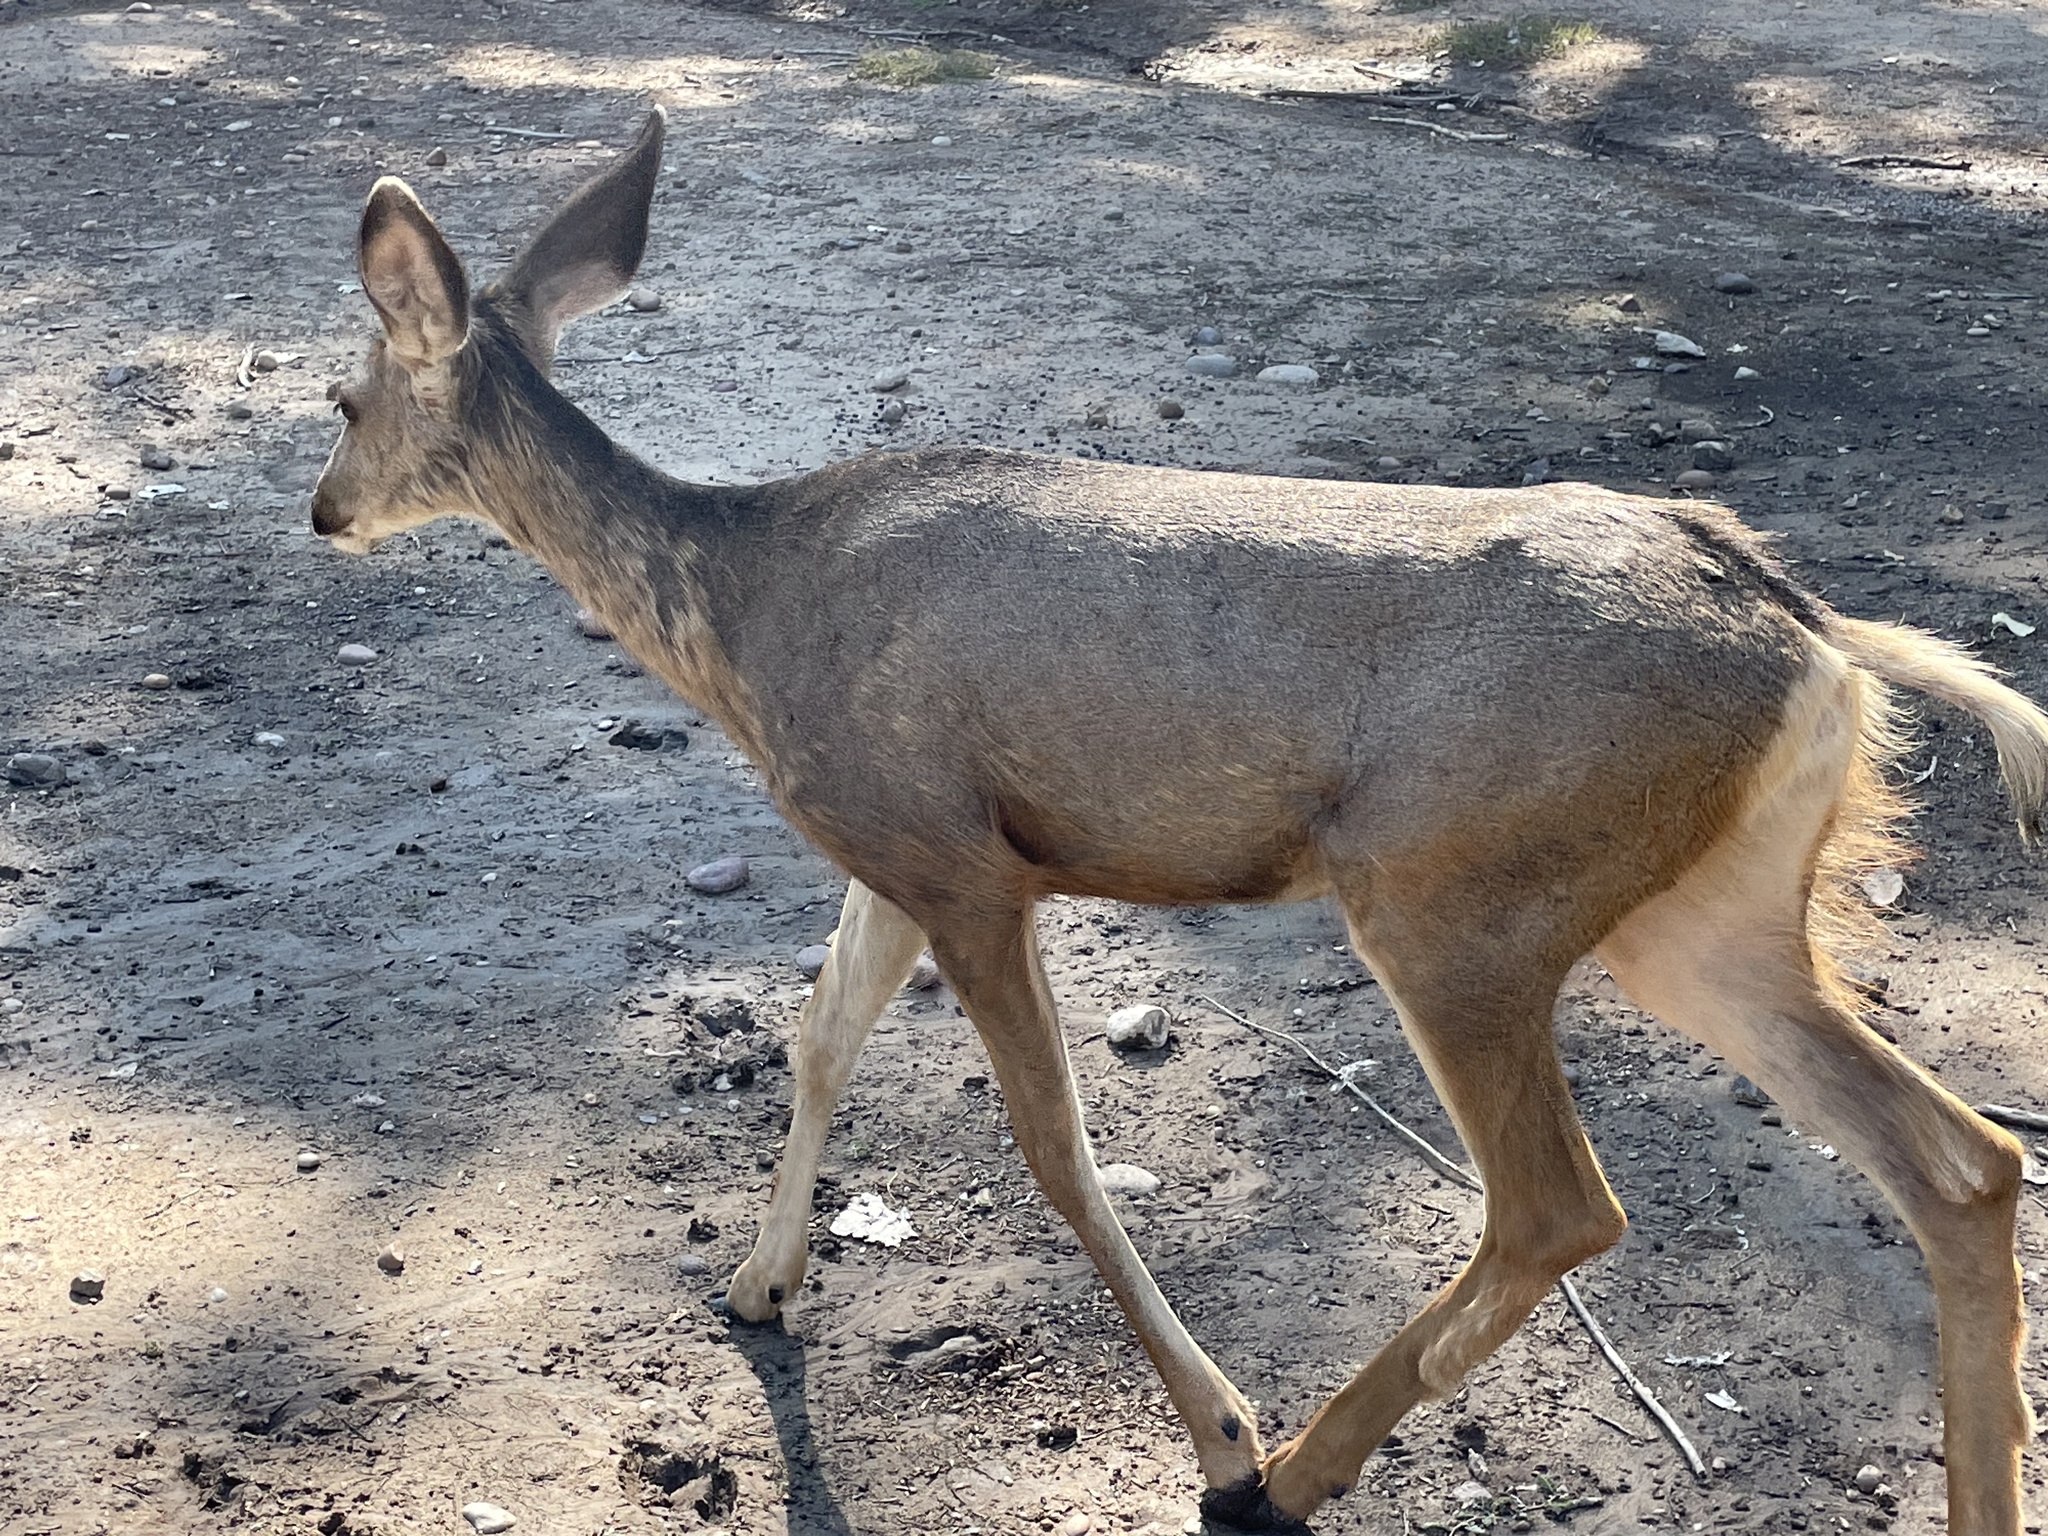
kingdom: Animalia
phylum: Chordata
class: Mammalia
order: Artiodactyla
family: Cervidae
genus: Odocoileus
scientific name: Odocoileus hemionus
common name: Mule deer
